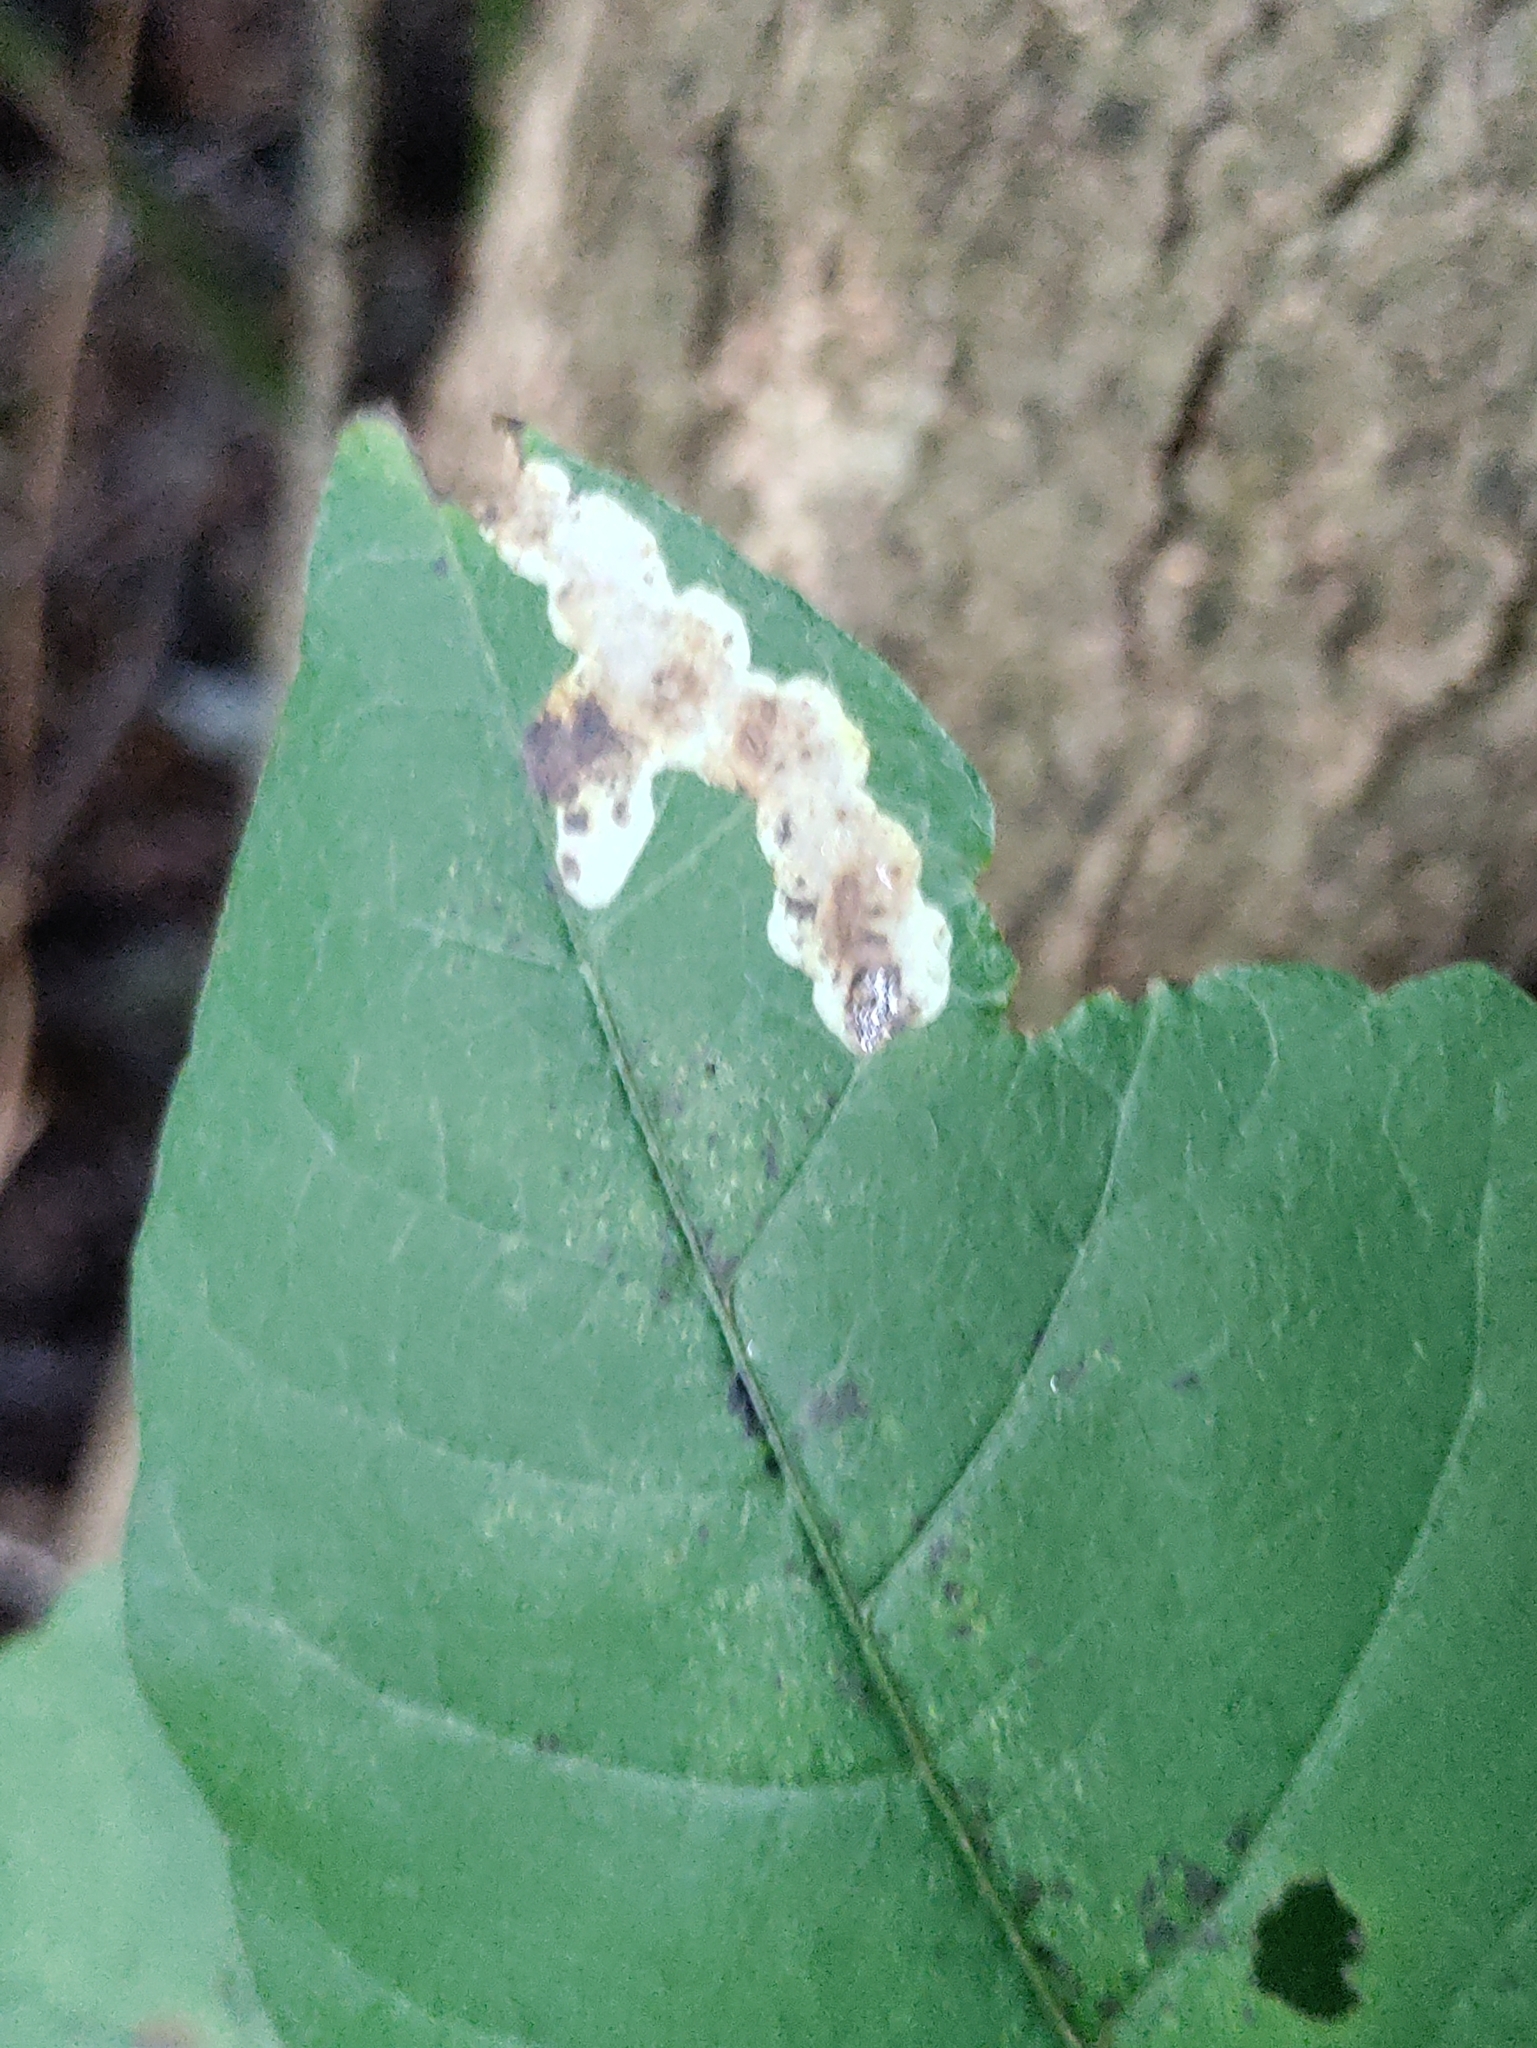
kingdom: Animalia
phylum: Arthropoda
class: Insecta
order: Lepidoptera
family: Gracillariidae
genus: Cameraria
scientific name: Cameraria guttifinitella
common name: Poison ivy leaf-miner moth
